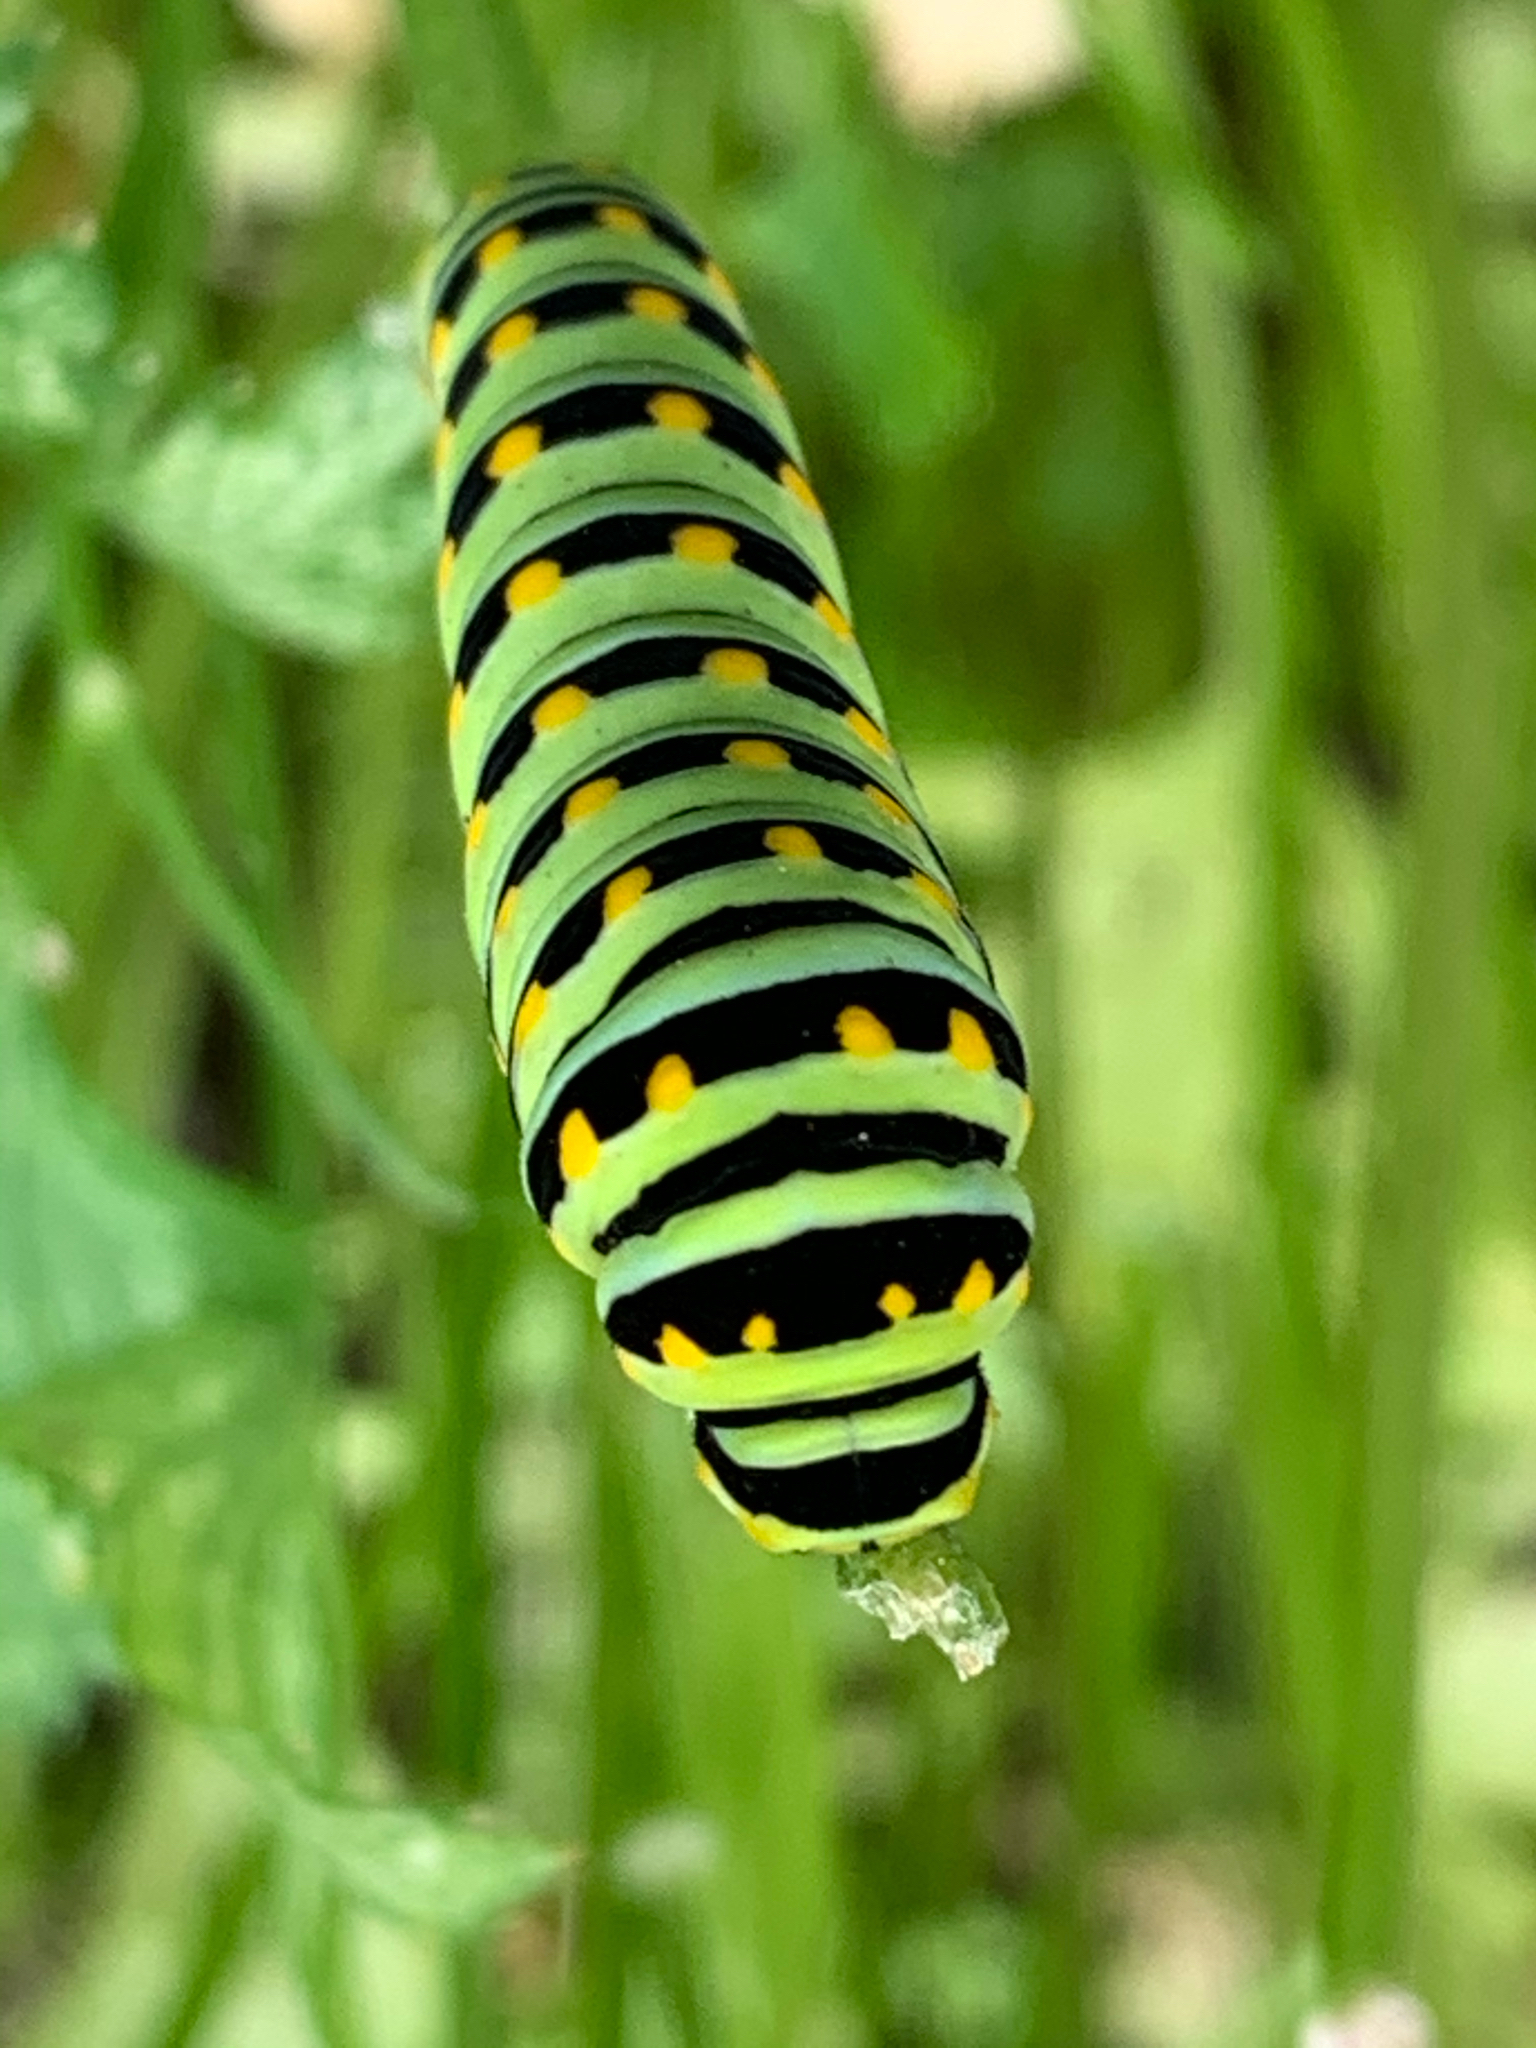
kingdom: Animalia
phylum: Arthropoda
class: Insecta
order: Lepidoptera
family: Papilionidae
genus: Papilio
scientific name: Papilio polyxenes
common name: Black swallowtail
